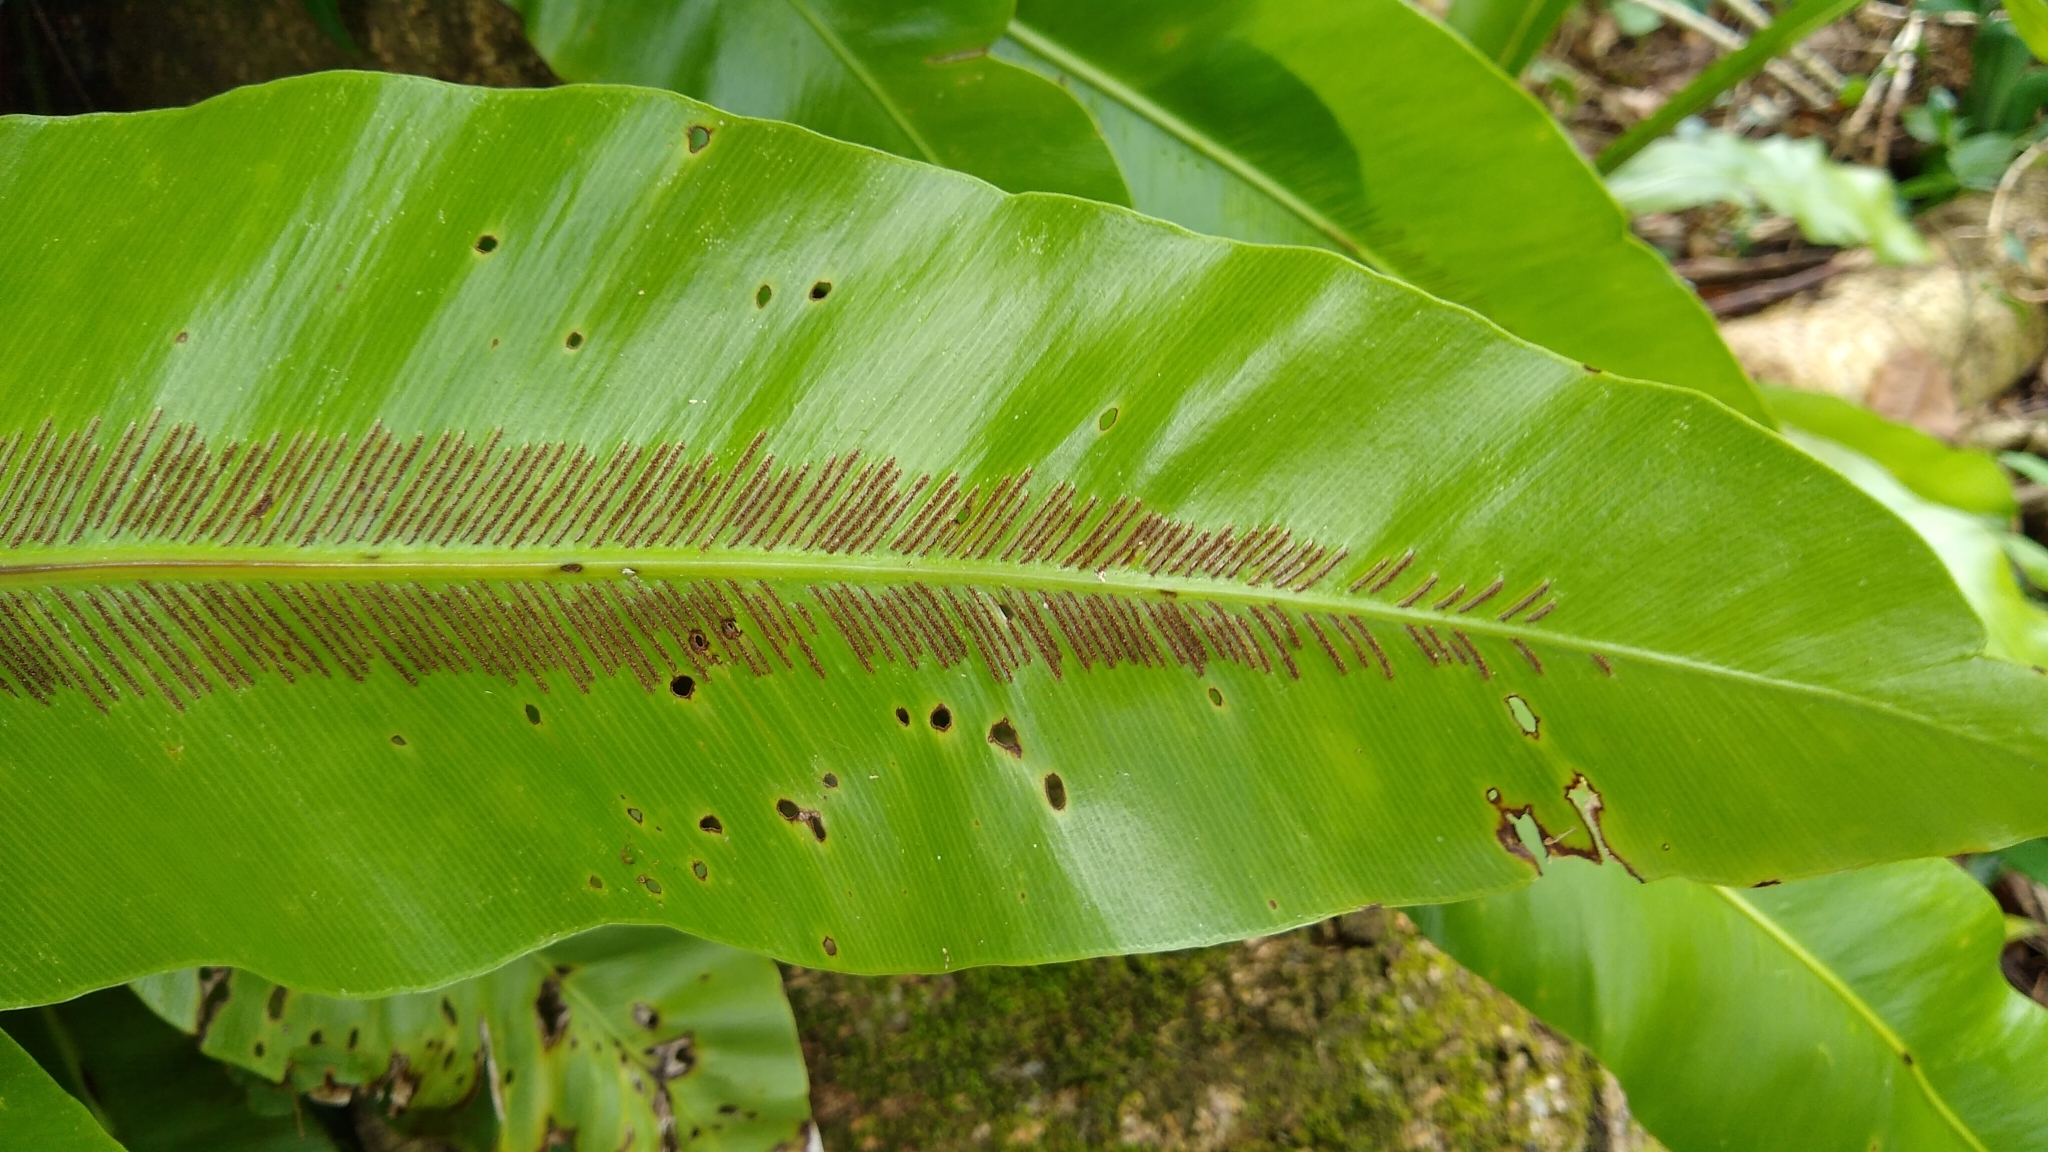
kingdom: Plantae
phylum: Tracheophyta
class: Polypodiopsida
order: Polypodiales
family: Aspleniaceae
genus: Asplenium
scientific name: Asplenium nidus
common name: Bird's-nest fern
